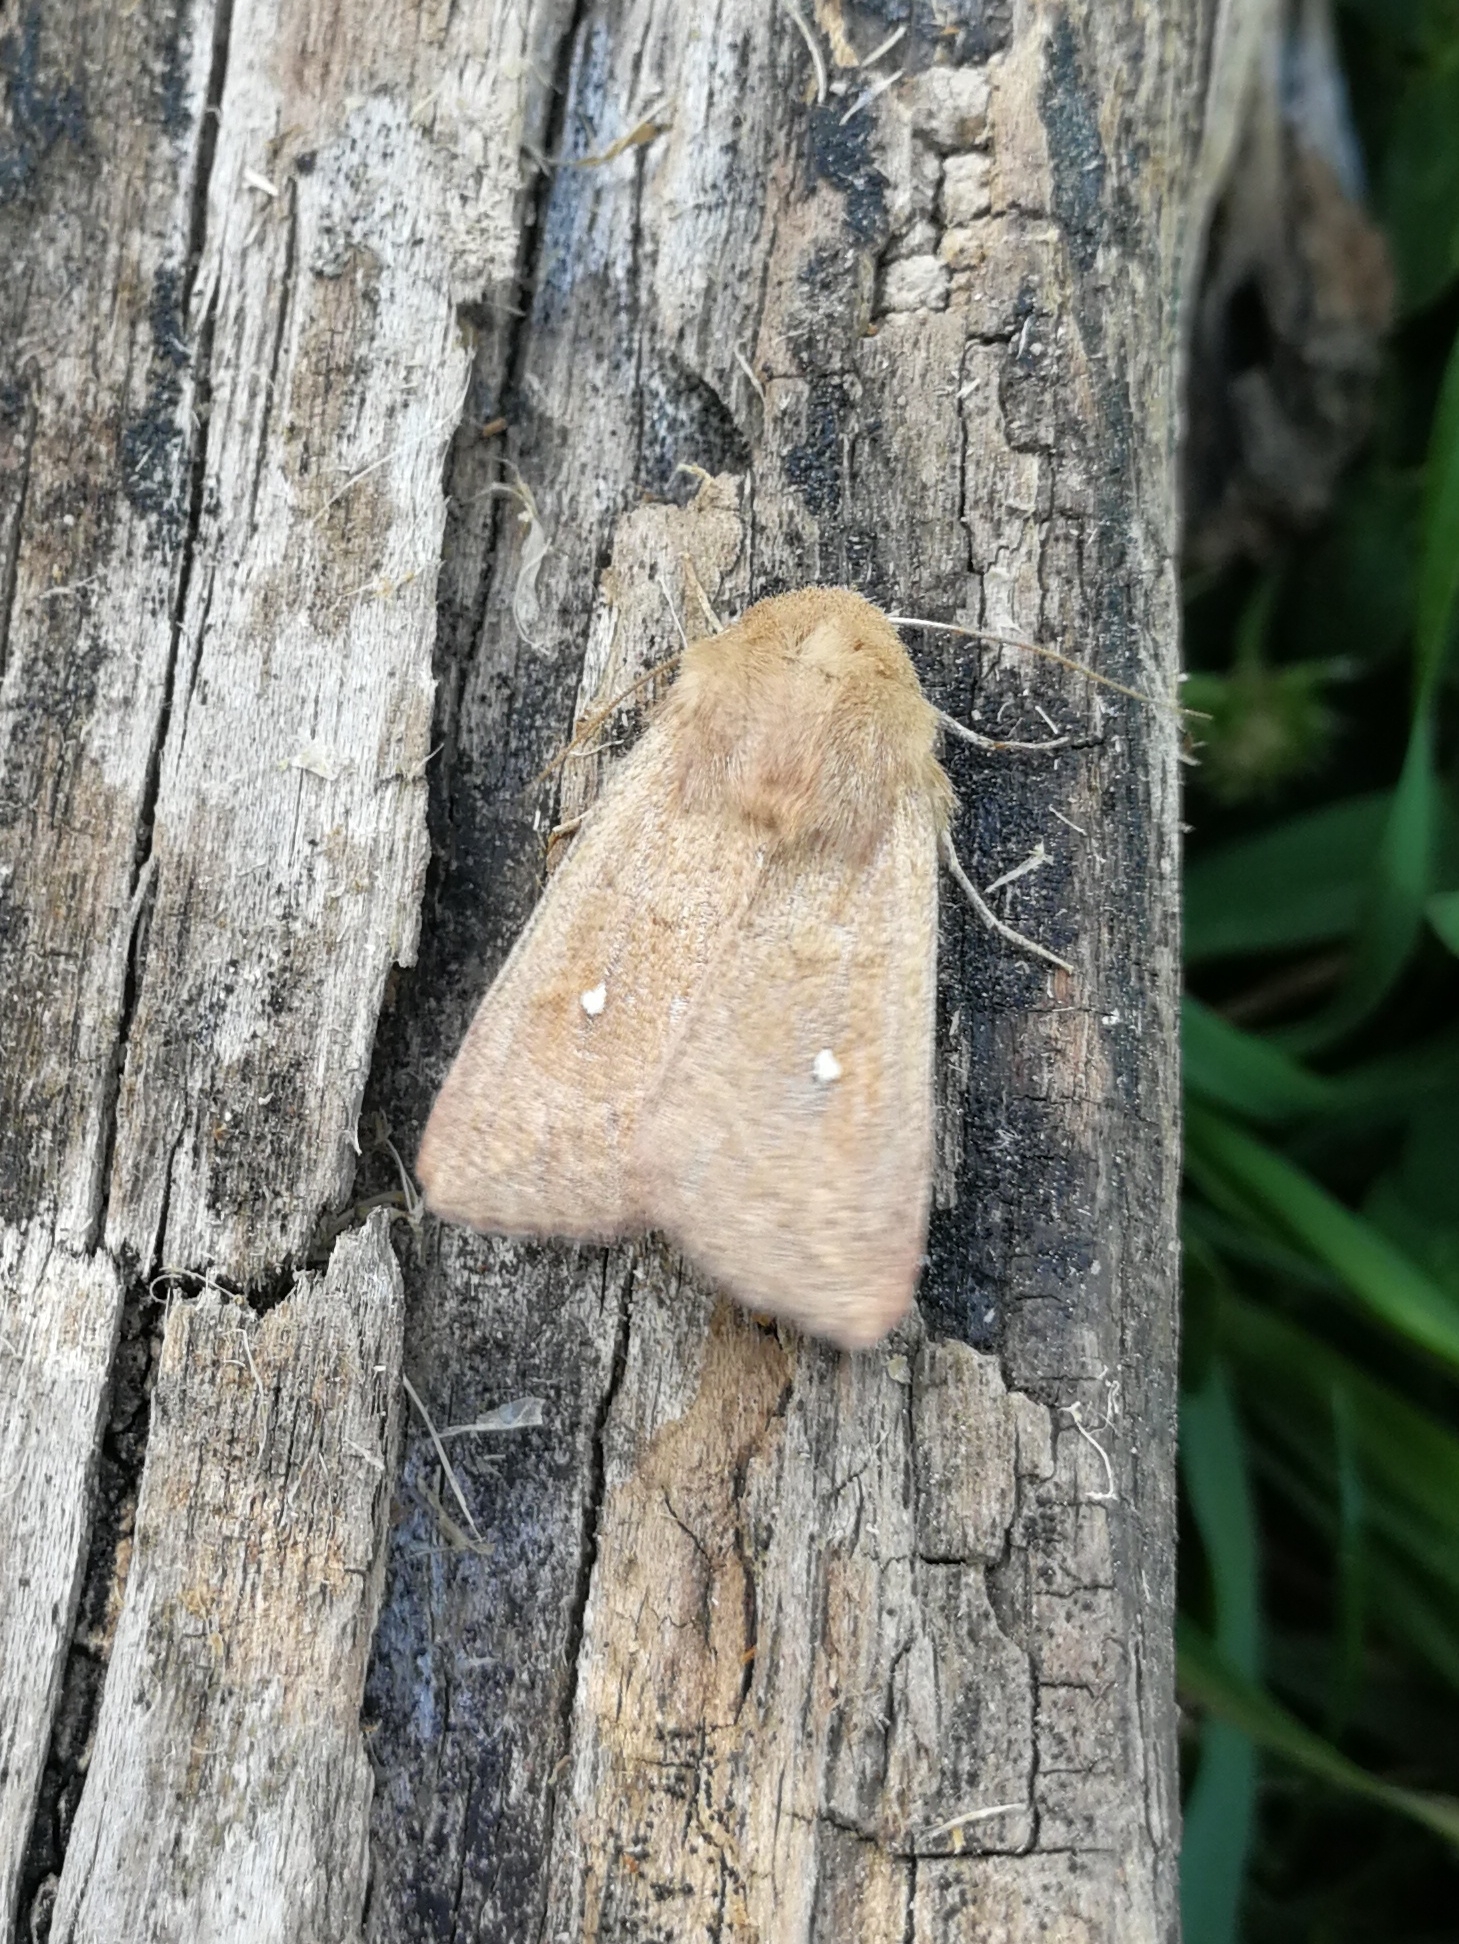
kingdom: Animalia
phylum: Arthropoda
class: Insecta
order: Lepidoptera
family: Noctuidae
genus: Mythimna
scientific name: Mythimna albipuncta
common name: White-point
